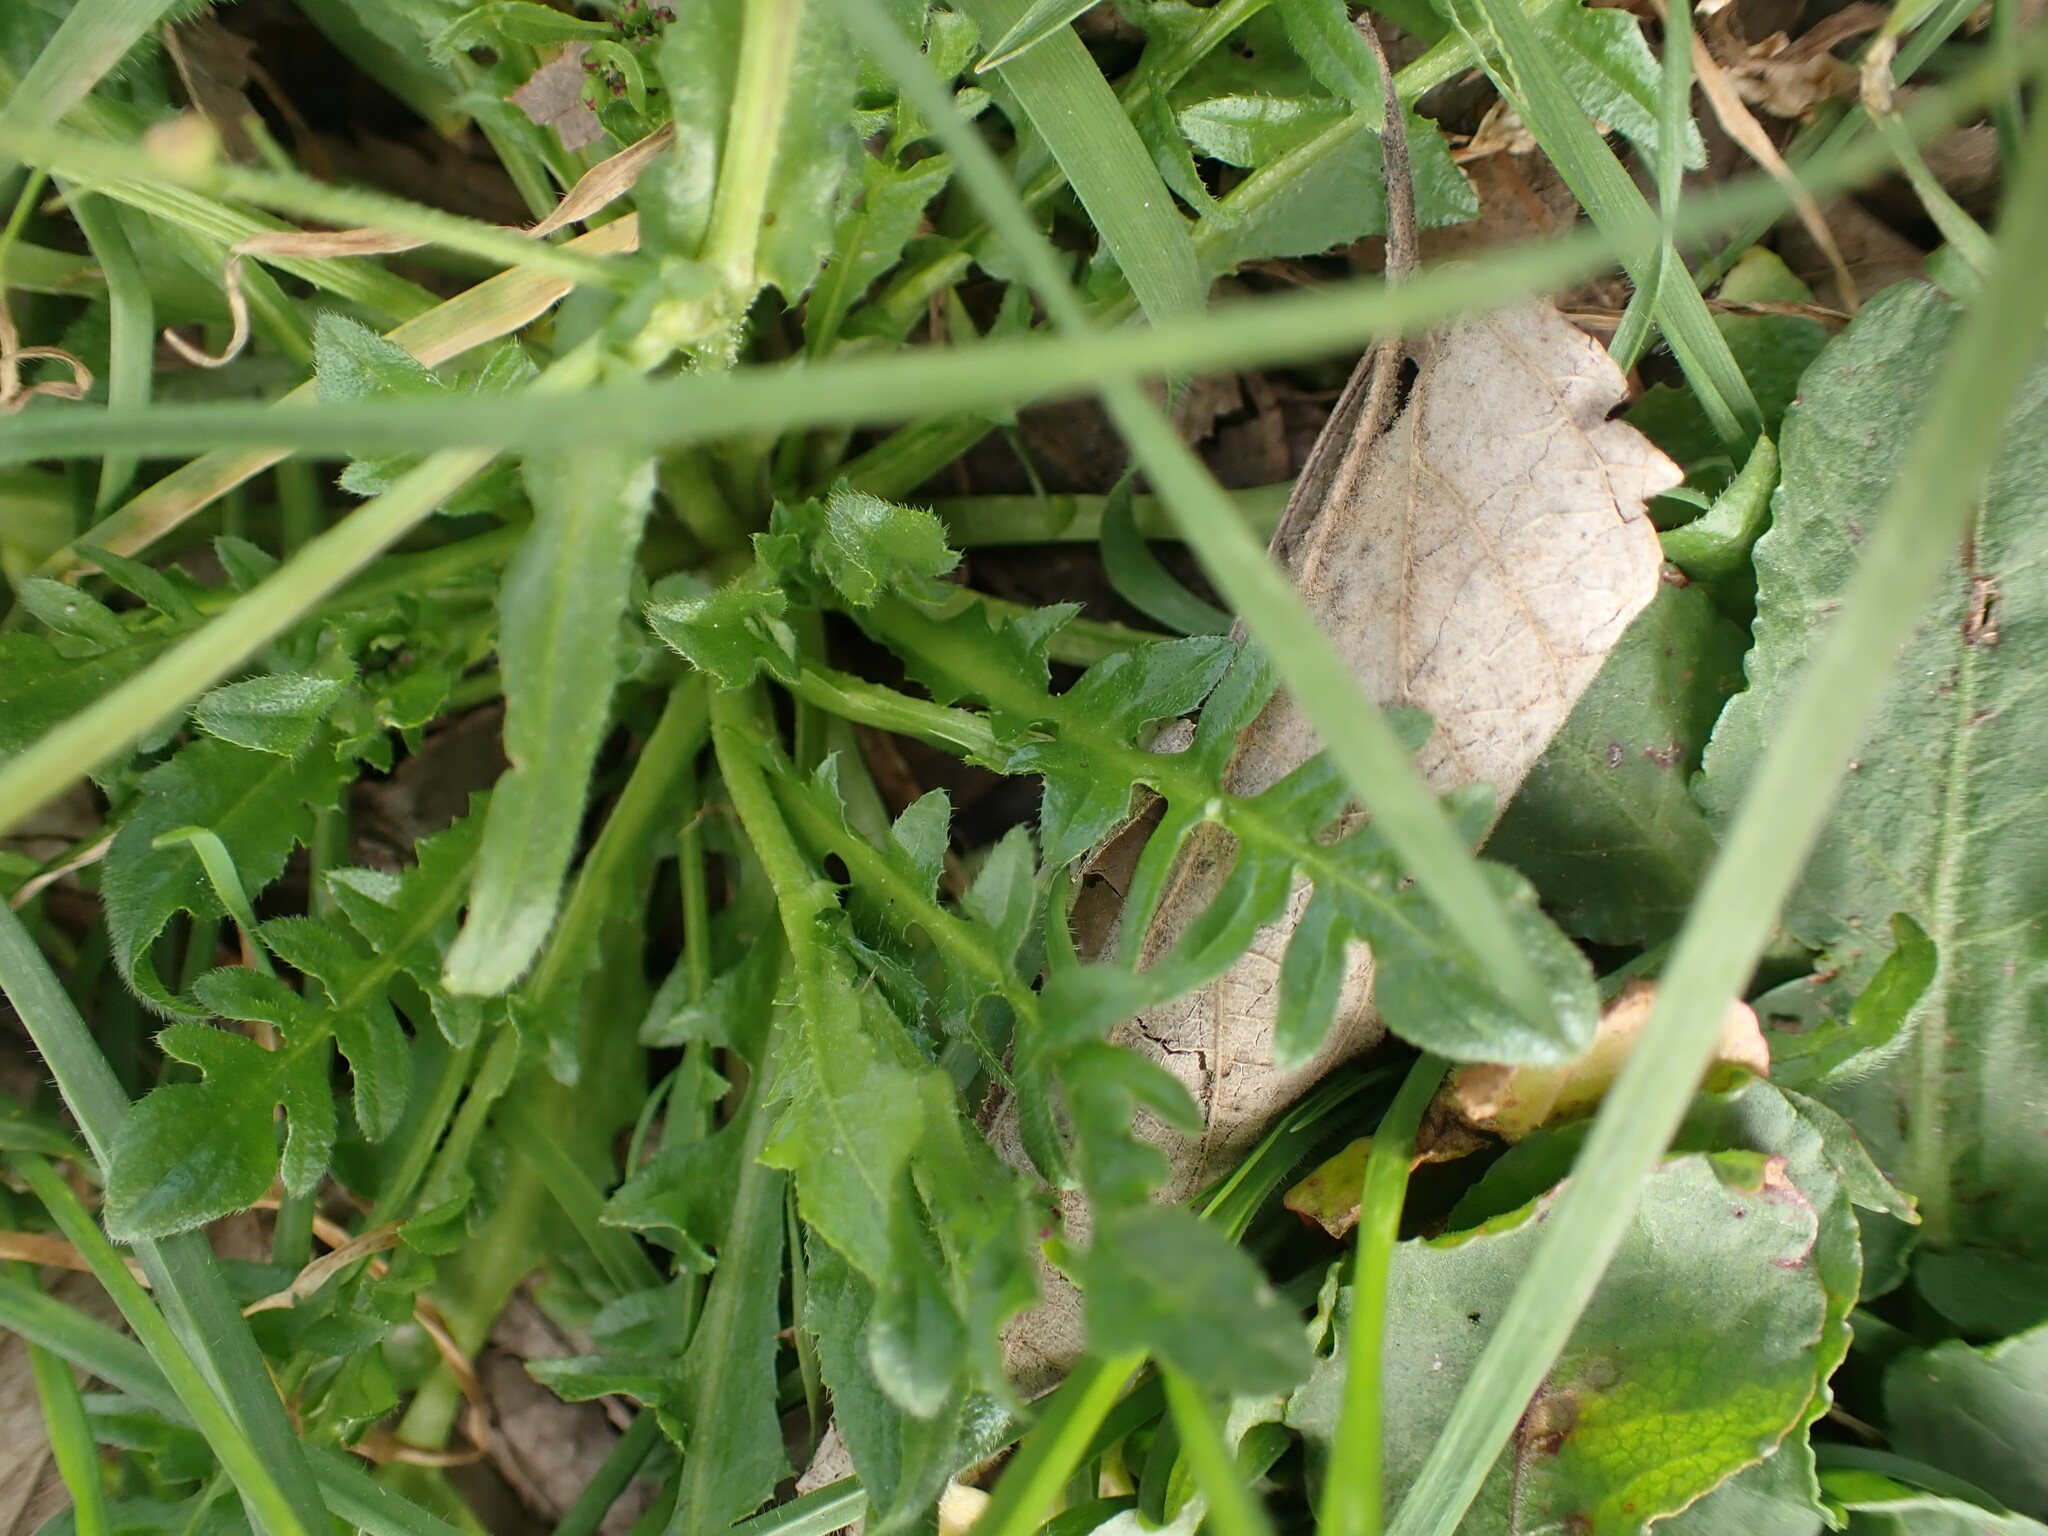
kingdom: Plantae
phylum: Tracheophyta
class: Magnoliopsida
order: Brassicales
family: Brassicaceae
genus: Capsella
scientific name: Capsella bursa-pastoris
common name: Shepherd's purse
